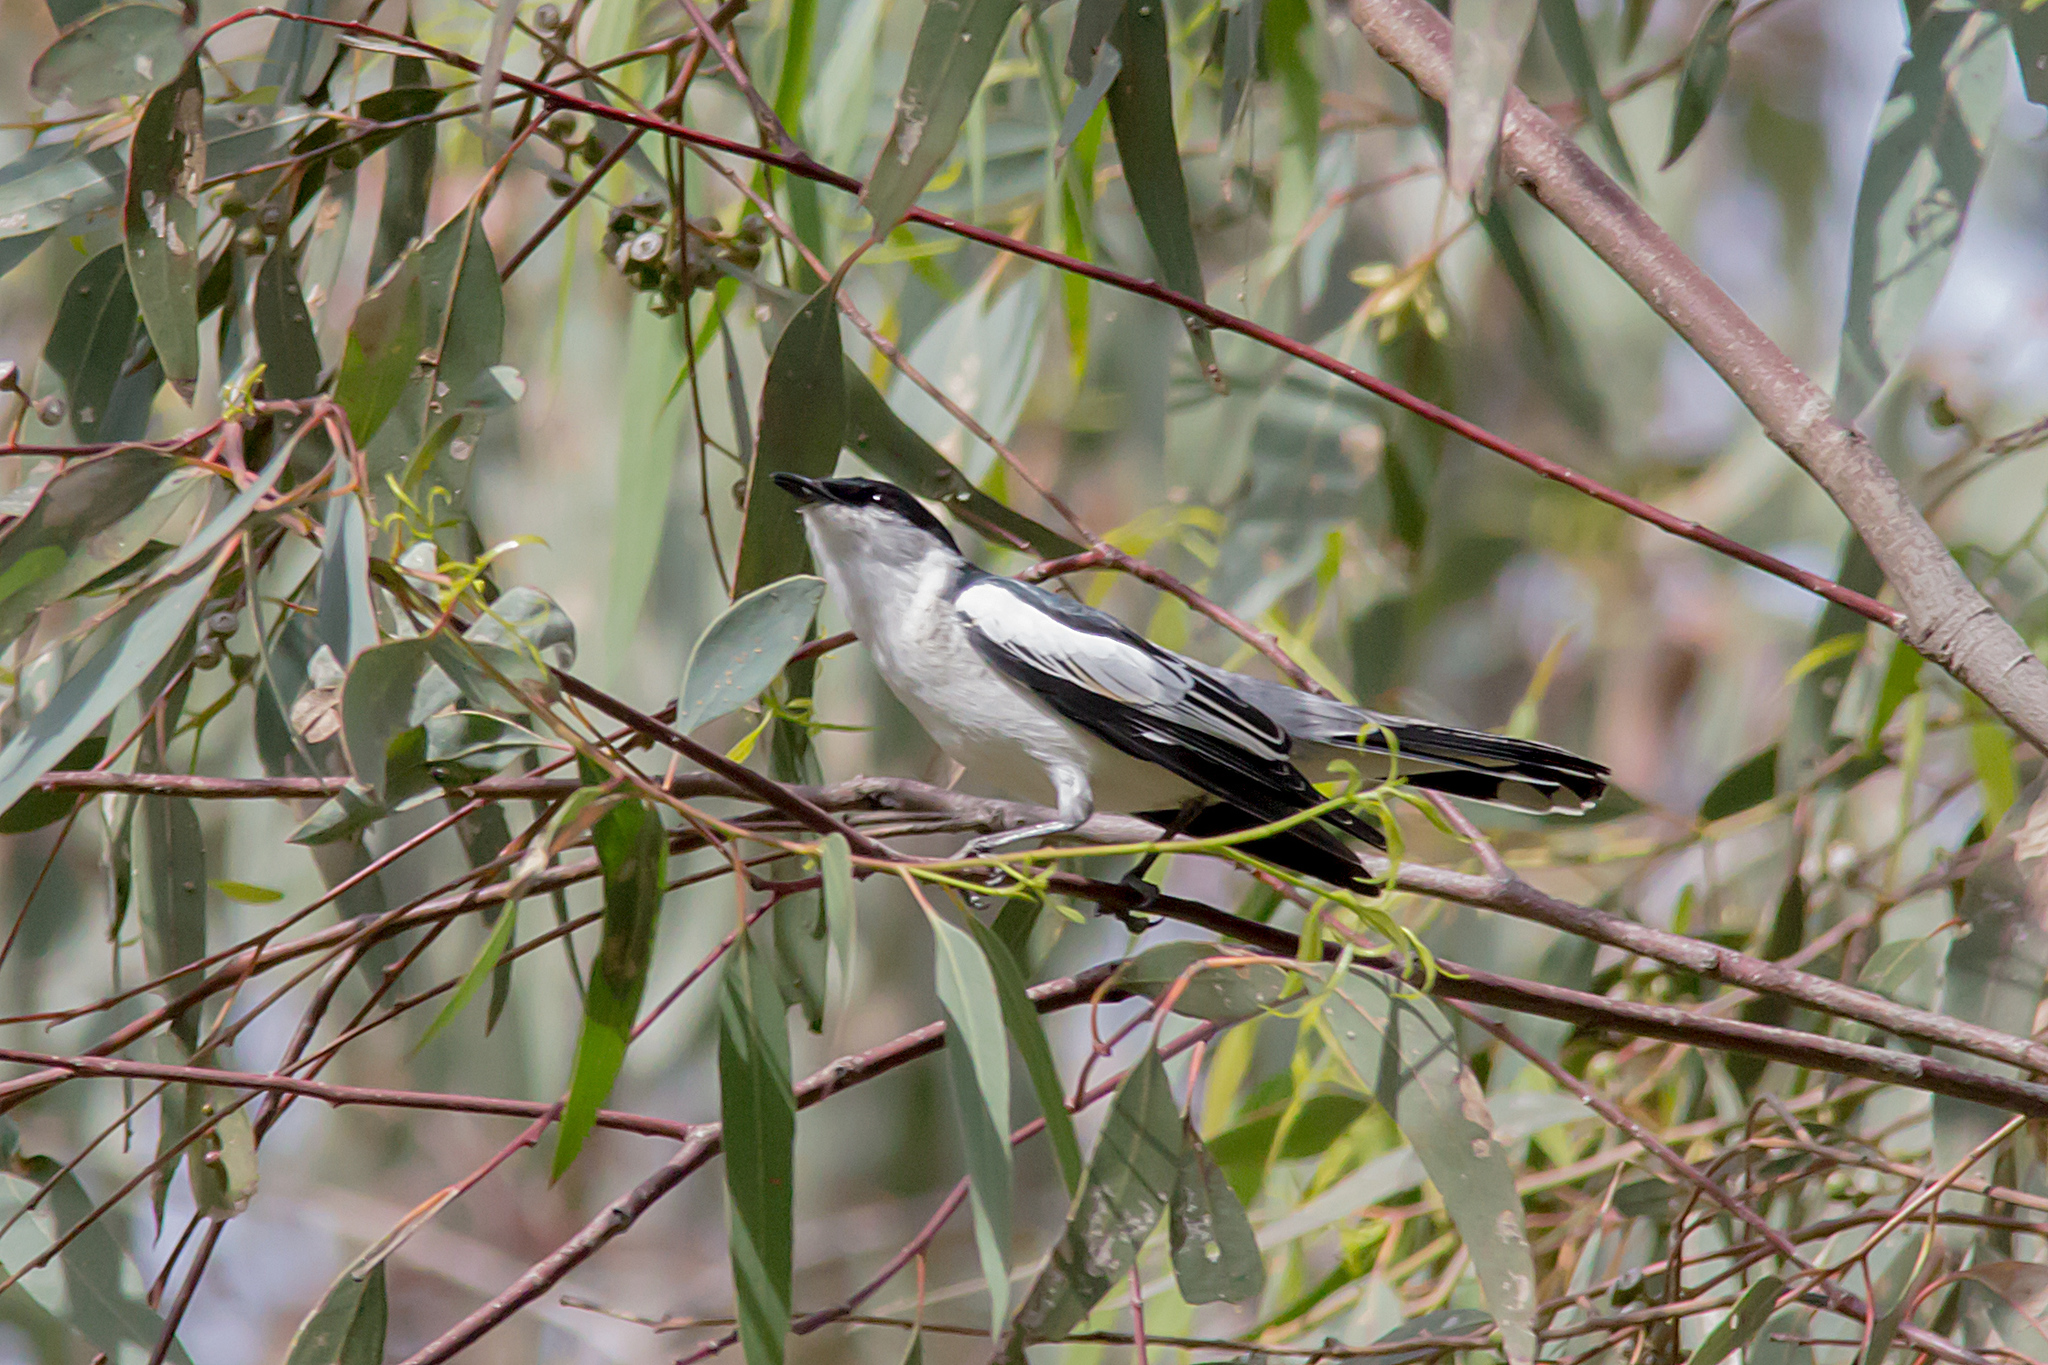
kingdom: Animalia
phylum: Chordata
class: Aves
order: Passeriformes
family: Campephagidae
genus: Lalage
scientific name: Lalage tricolor
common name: White-winged triller
